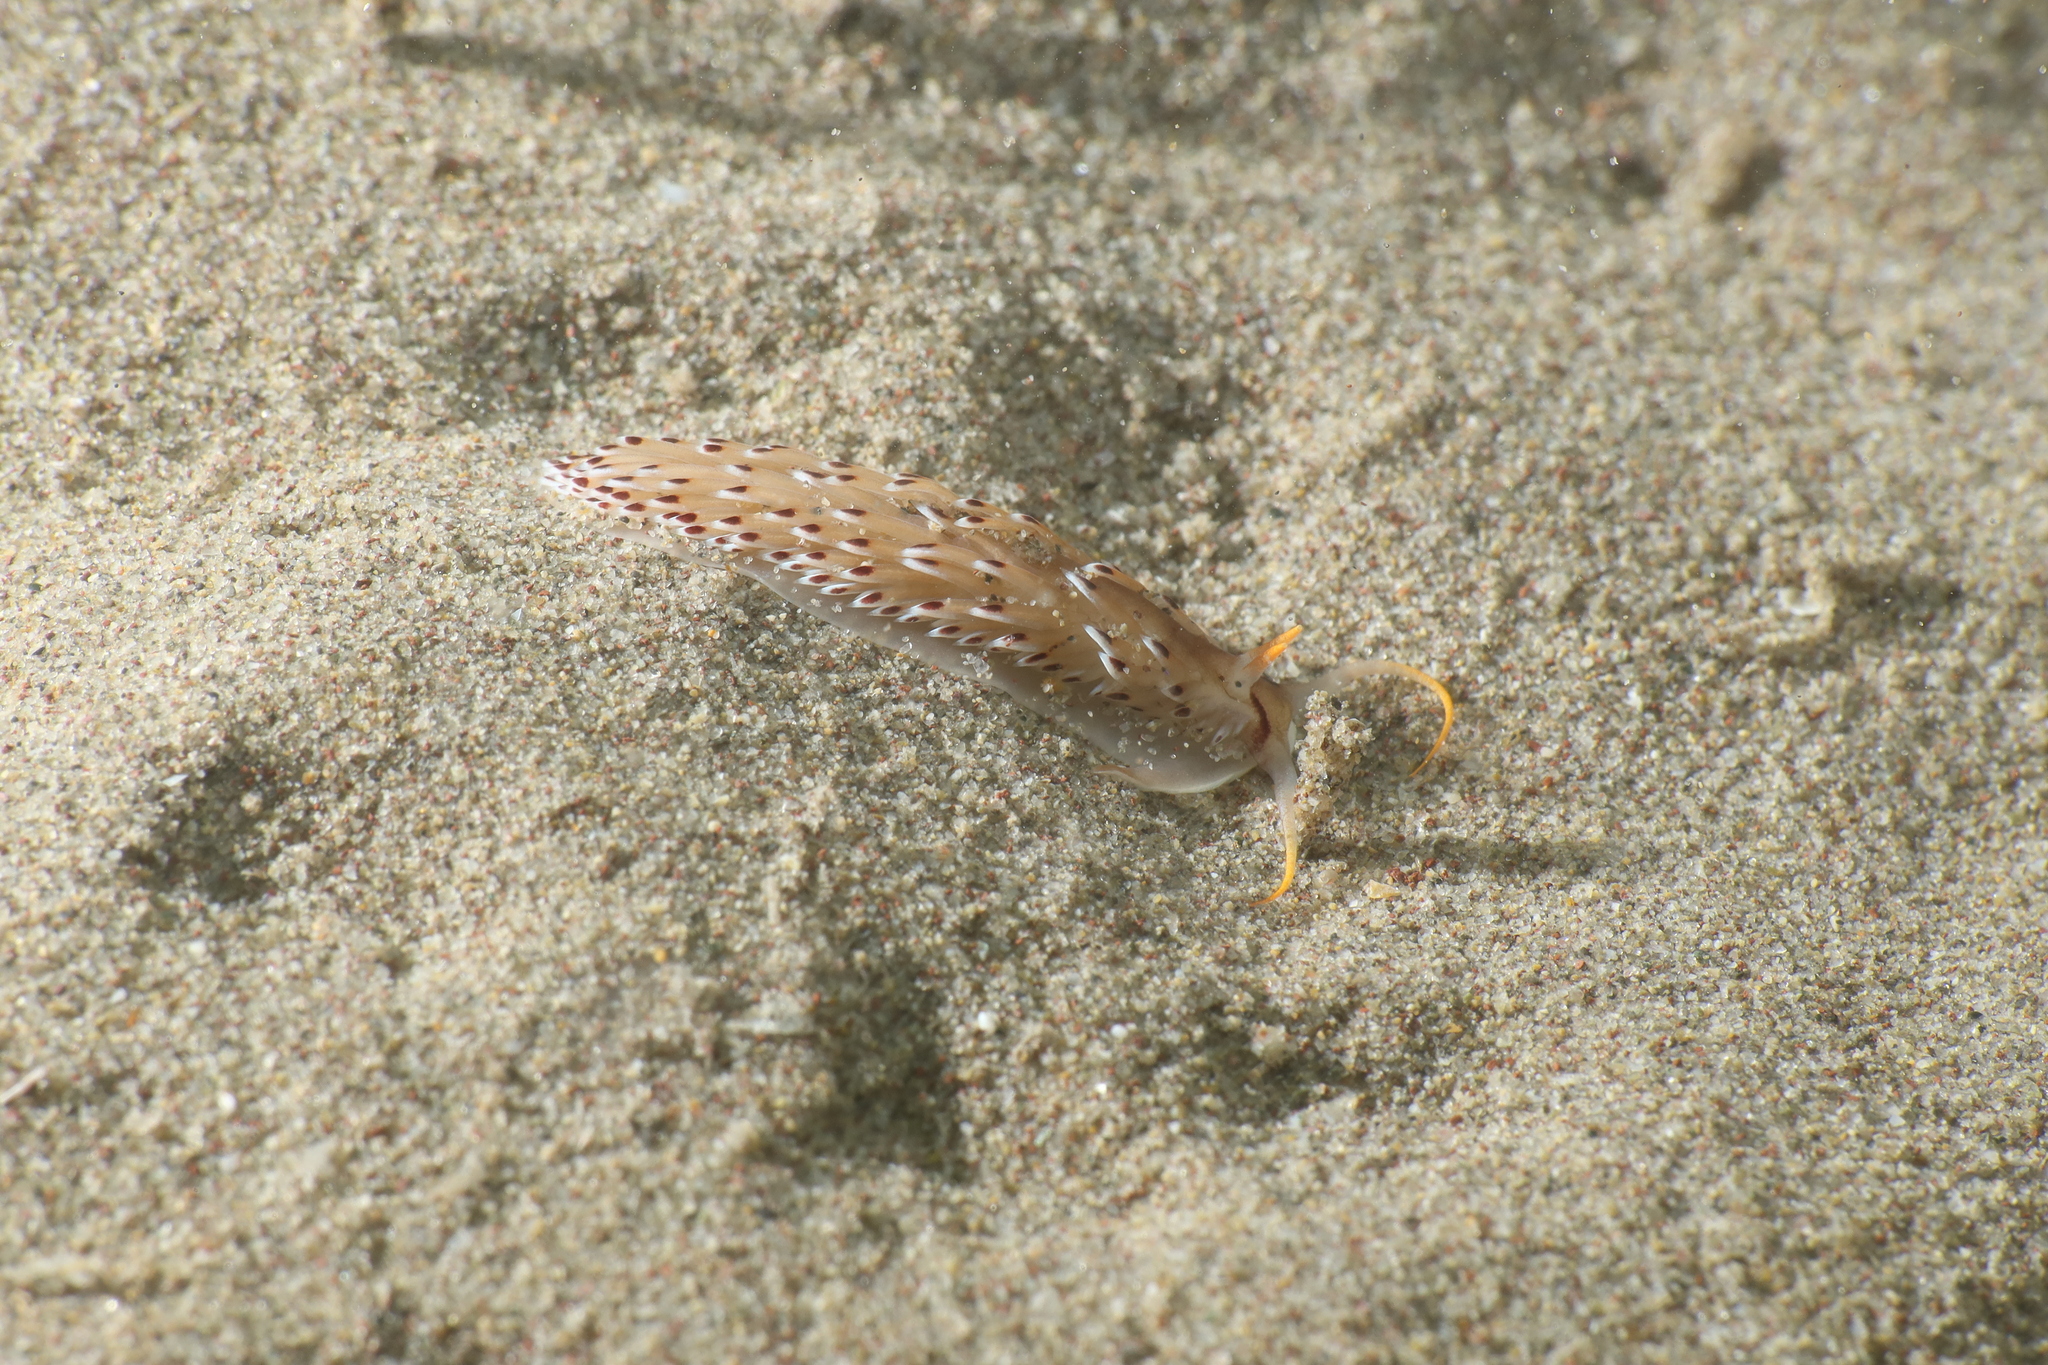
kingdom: Animalia
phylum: Mollusca
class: Gastropoda
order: Nudibranchia
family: Aeolidiidae
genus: Cerberilla
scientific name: Cerberilla bernadettae
